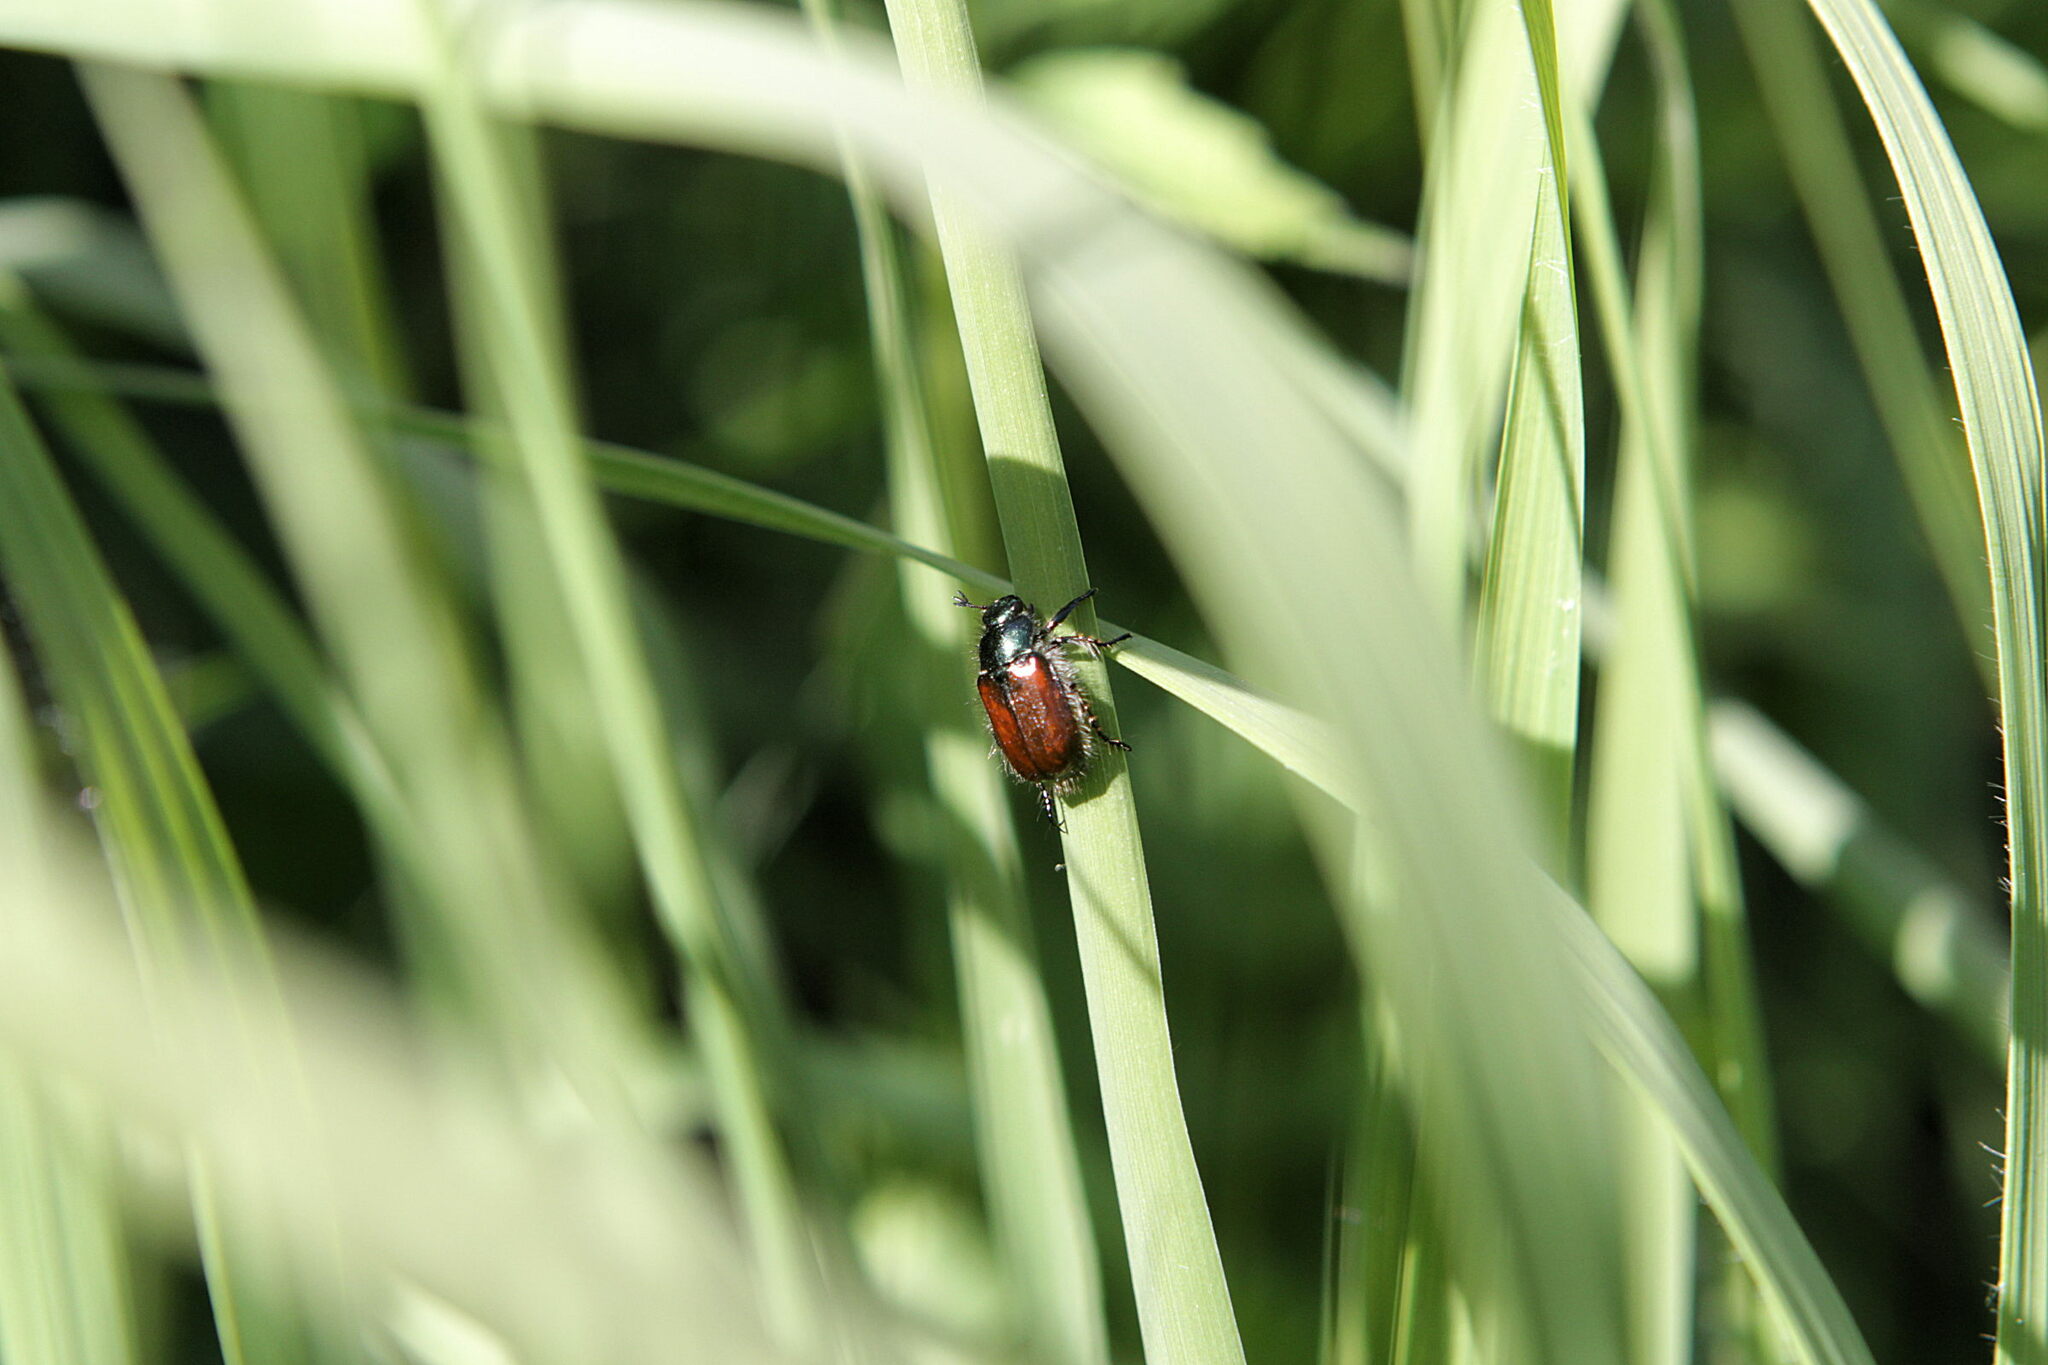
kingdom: Animalia
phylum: Arthropoda
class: Insecta
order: Coleoptera
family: Scarabaeidae
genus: Phyllopertha
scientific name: Phyllopertha horticola
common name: Garden chafer
